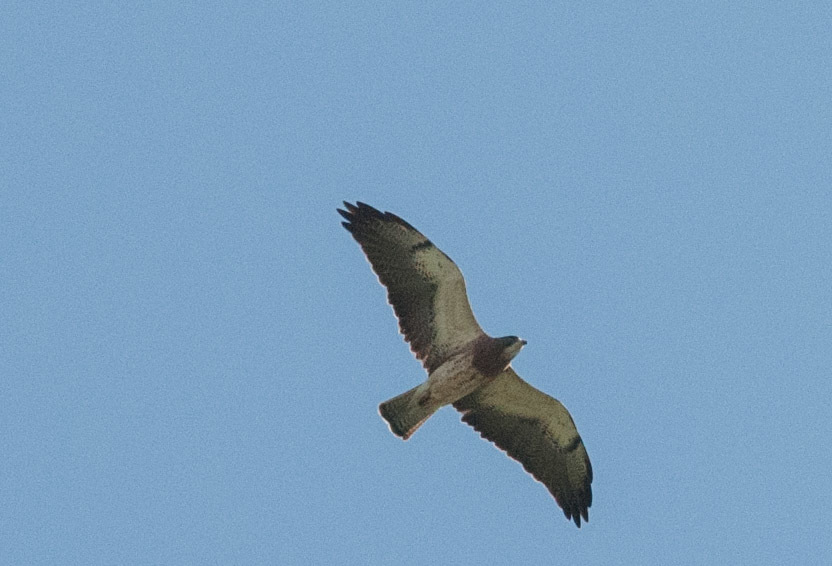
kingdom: Animalia
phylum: Chordata
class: Aves
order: Accipitriformes
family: Accipitridae
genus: Buteo
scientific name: Buteo swainsoni
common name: Swainson's hawk
